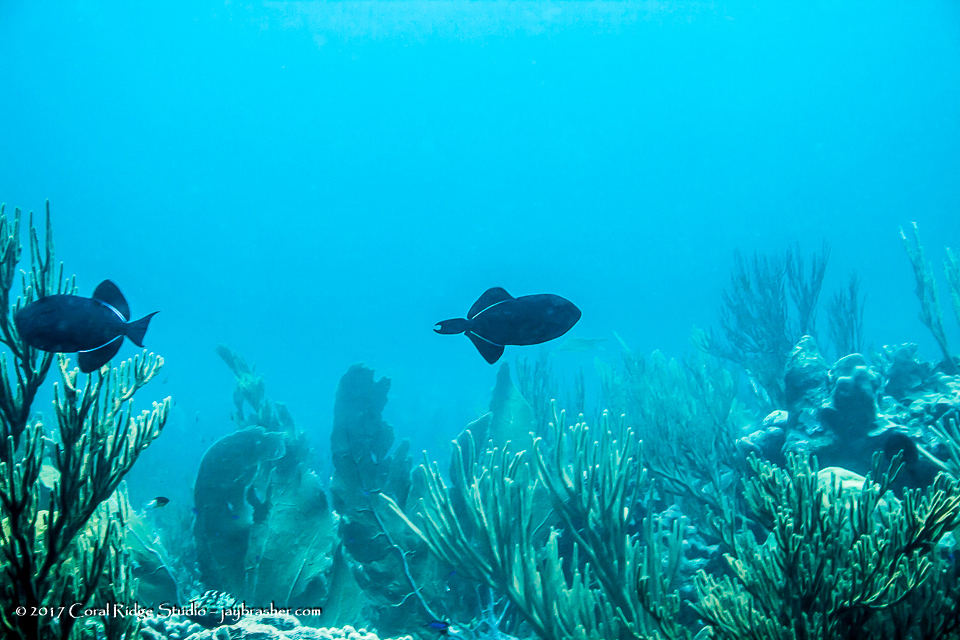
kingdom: Animalia
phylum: Chordata
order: Tetraodontiformes
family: Balistidae
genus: Melichthys
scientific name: Melichthys niger
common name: Black durgon
